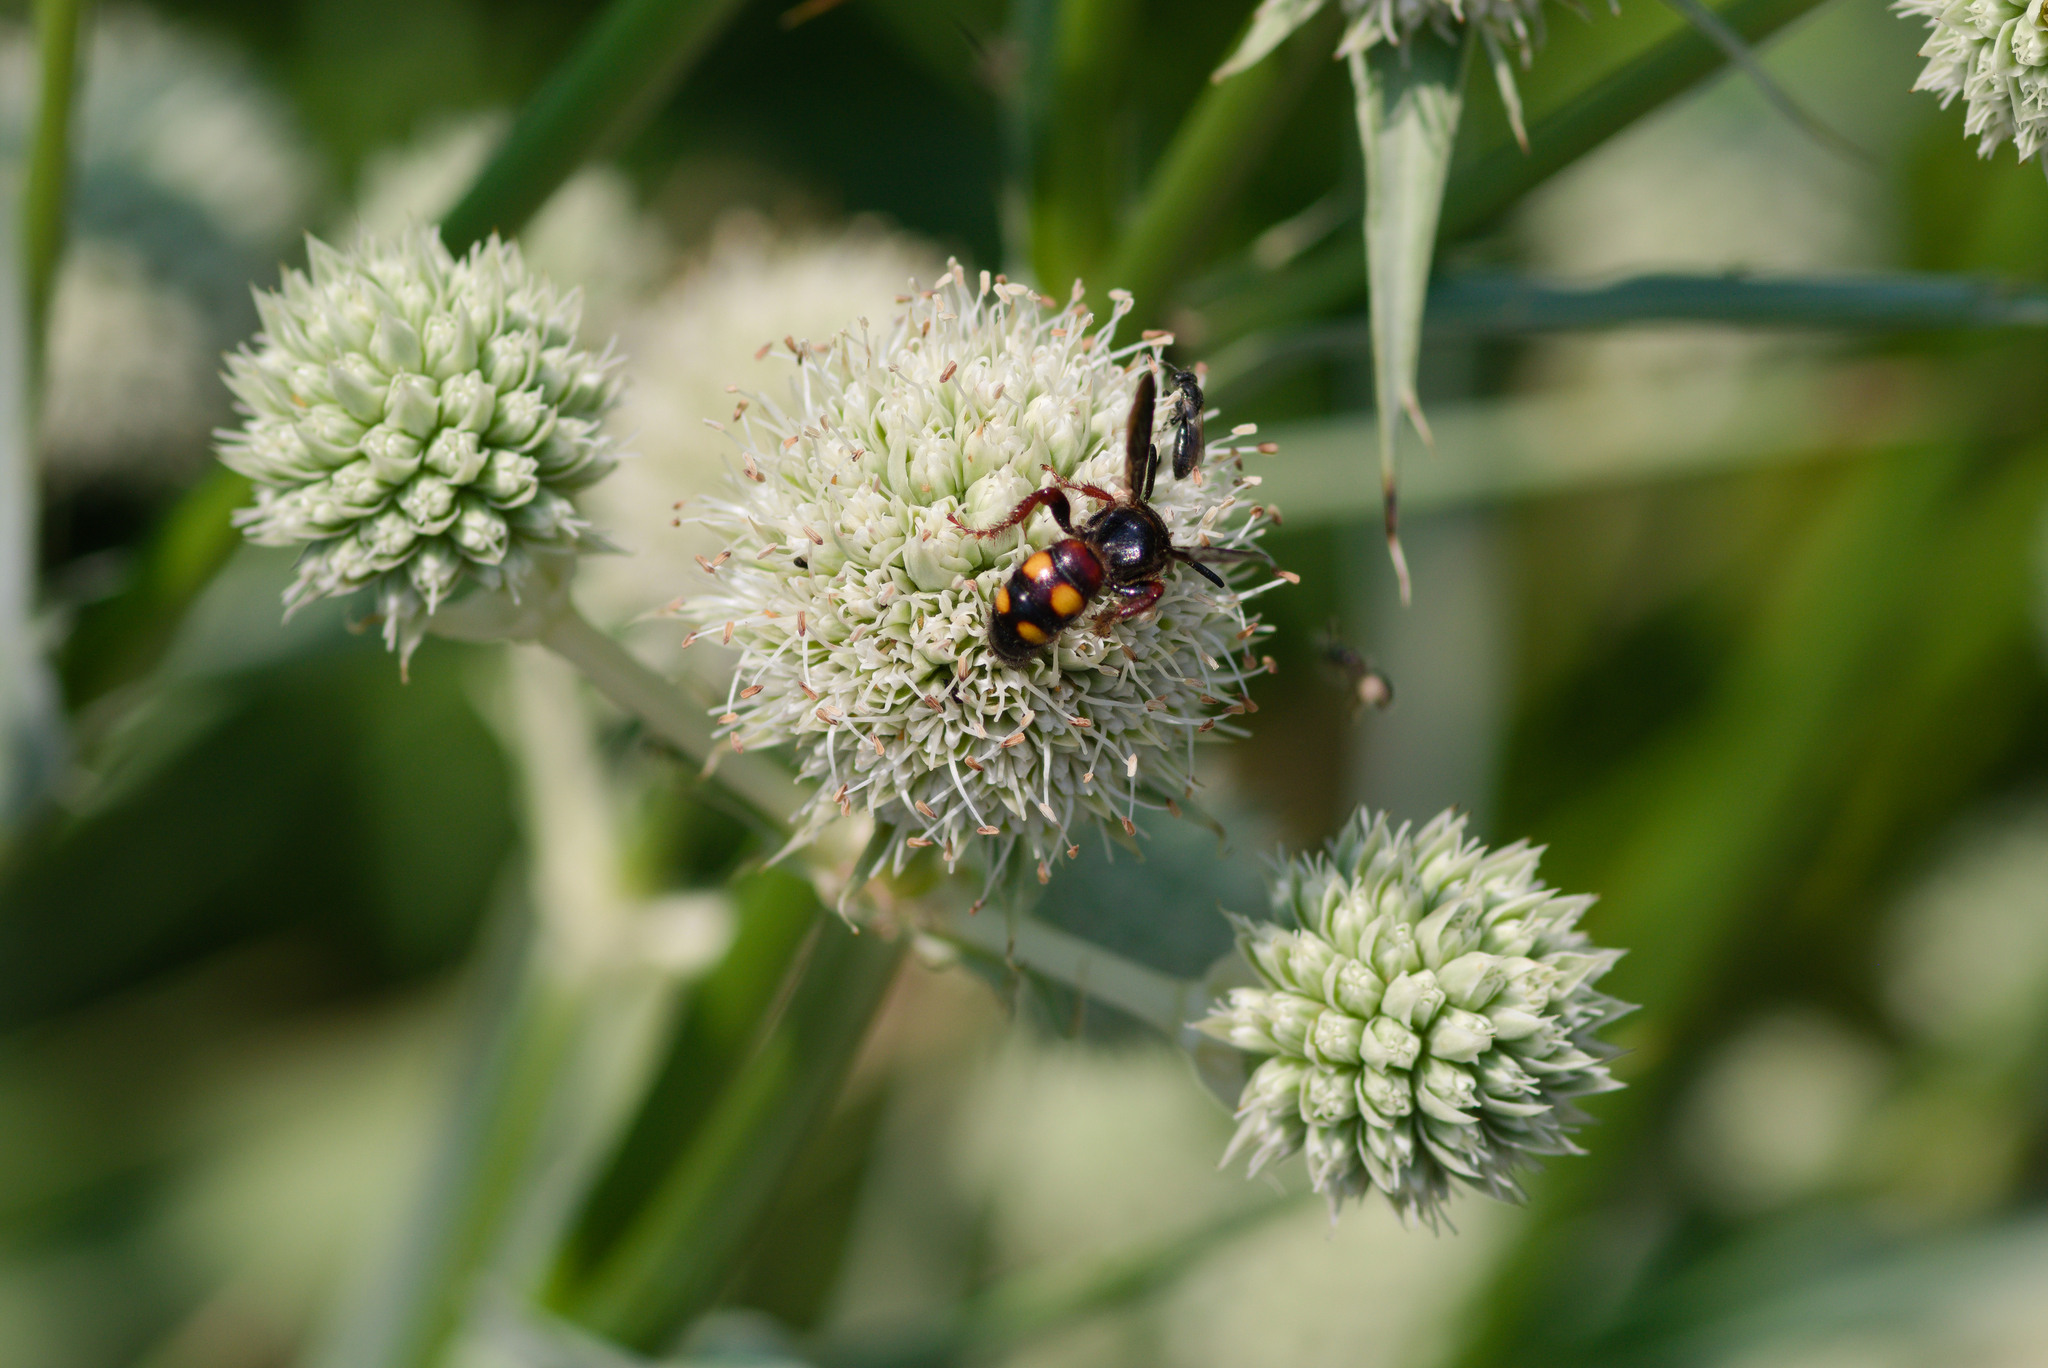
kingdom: Animalia
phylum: Arthropoda
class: Insecta
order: Hymenoptera
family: Scoliidae
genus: Scolia
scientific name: Scolia nobilitata
